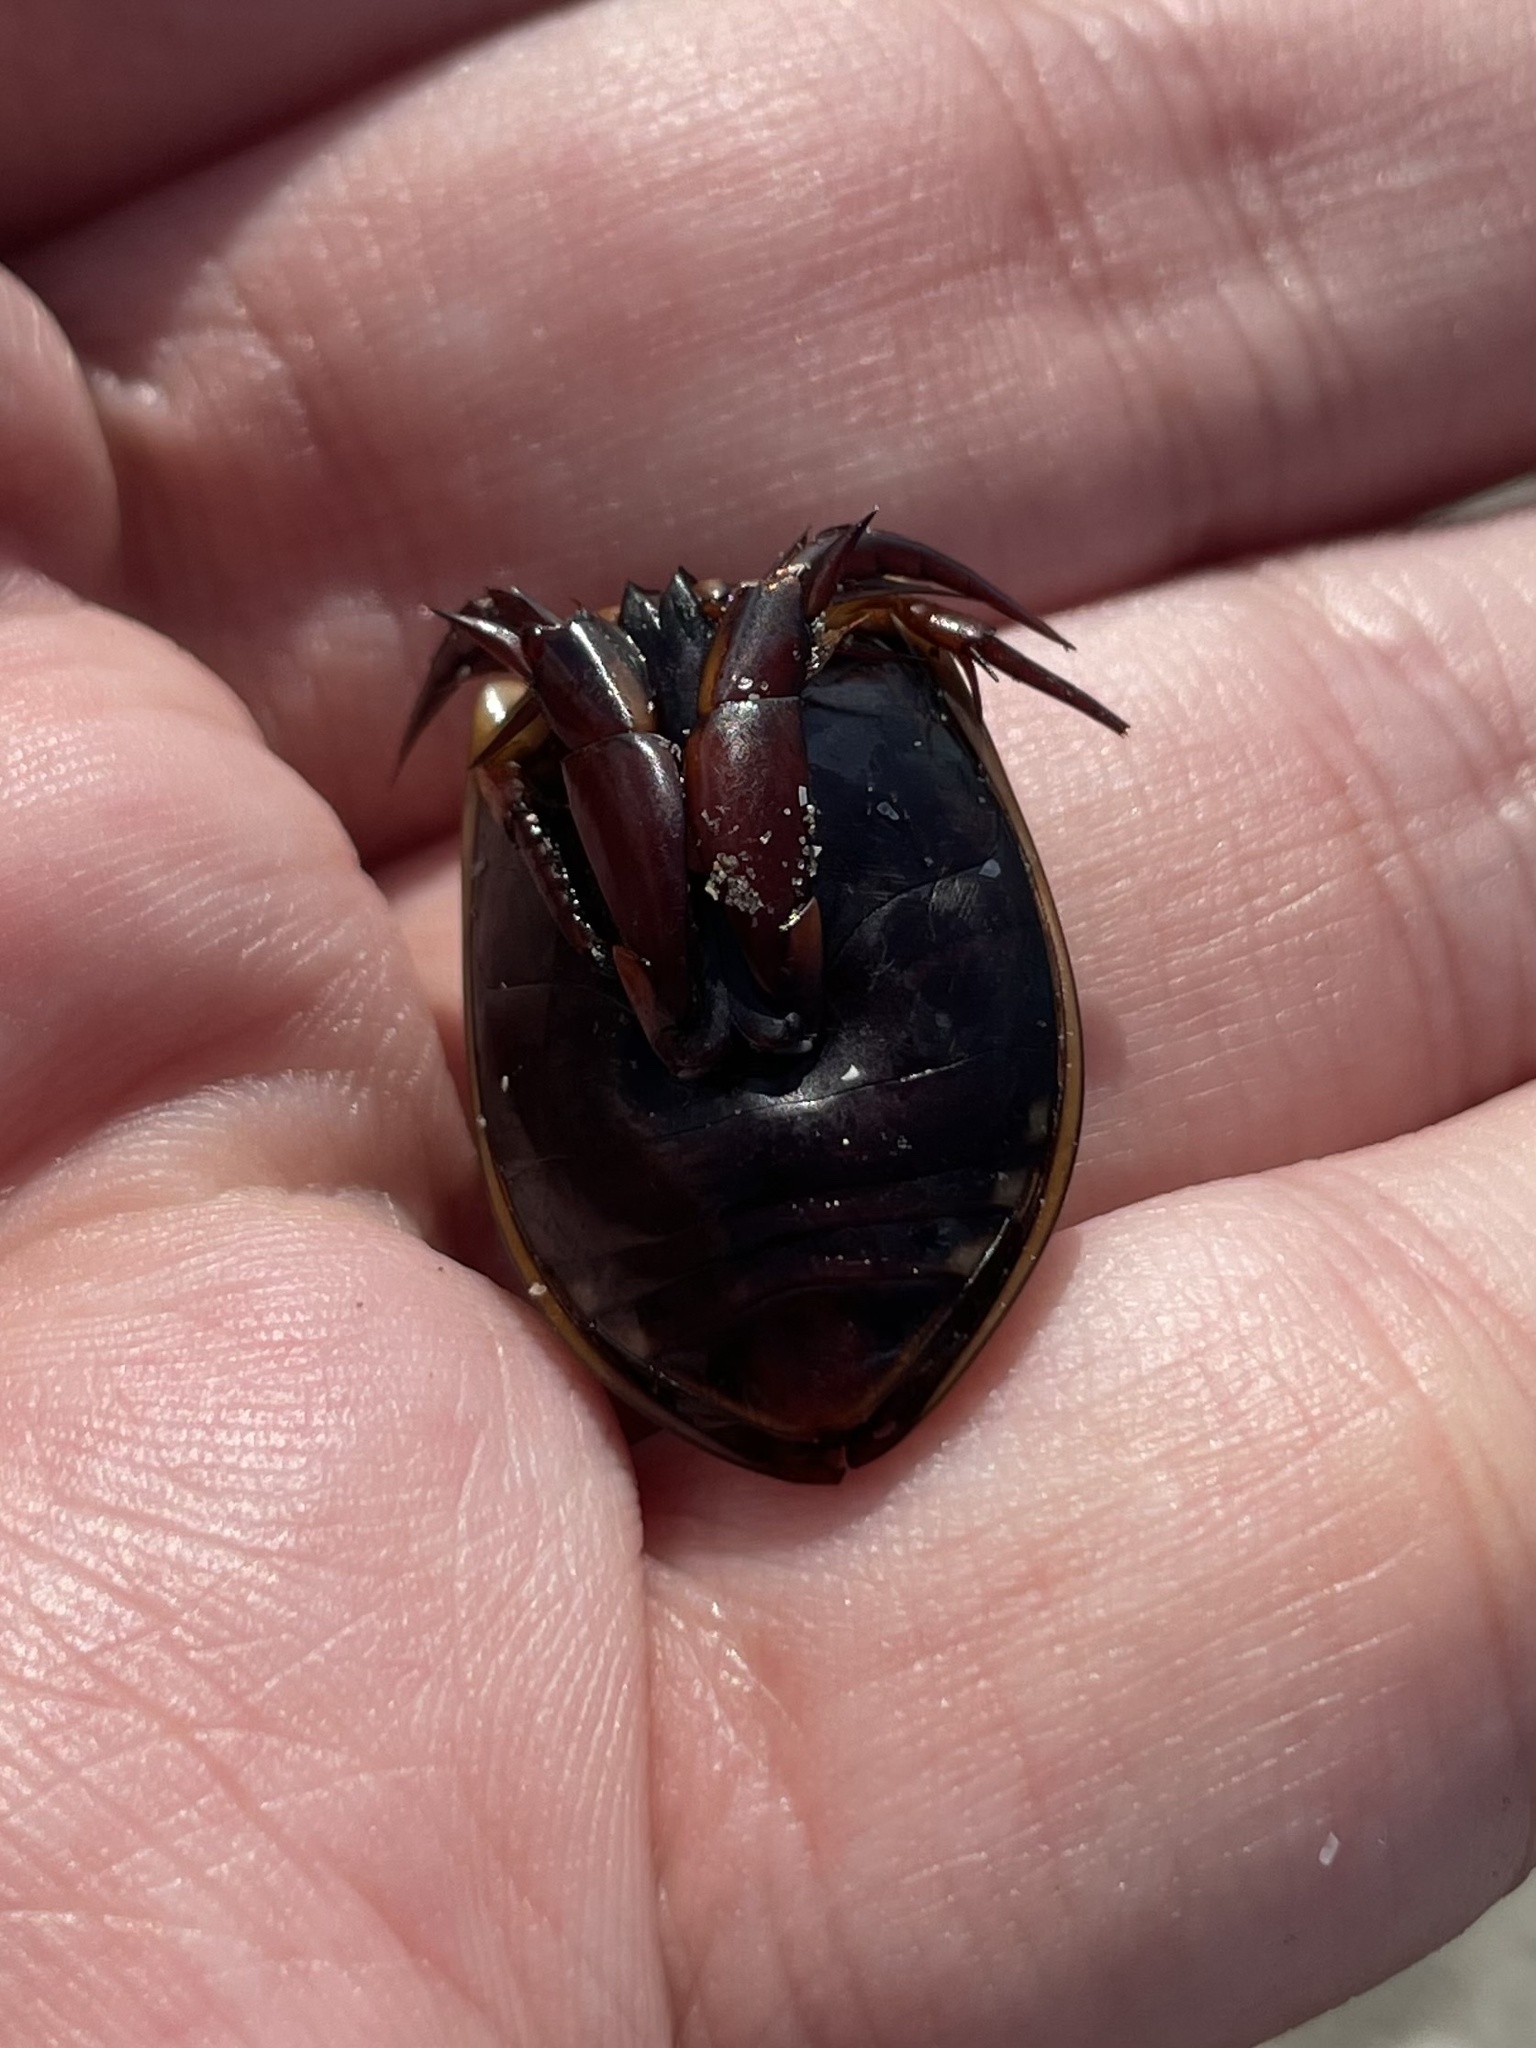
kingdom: Animalia
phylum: Arthropoda
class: Insecta
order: Coleoptera
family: Dytiscidae
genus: Cybister
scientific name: Cybister fimbriolatus
